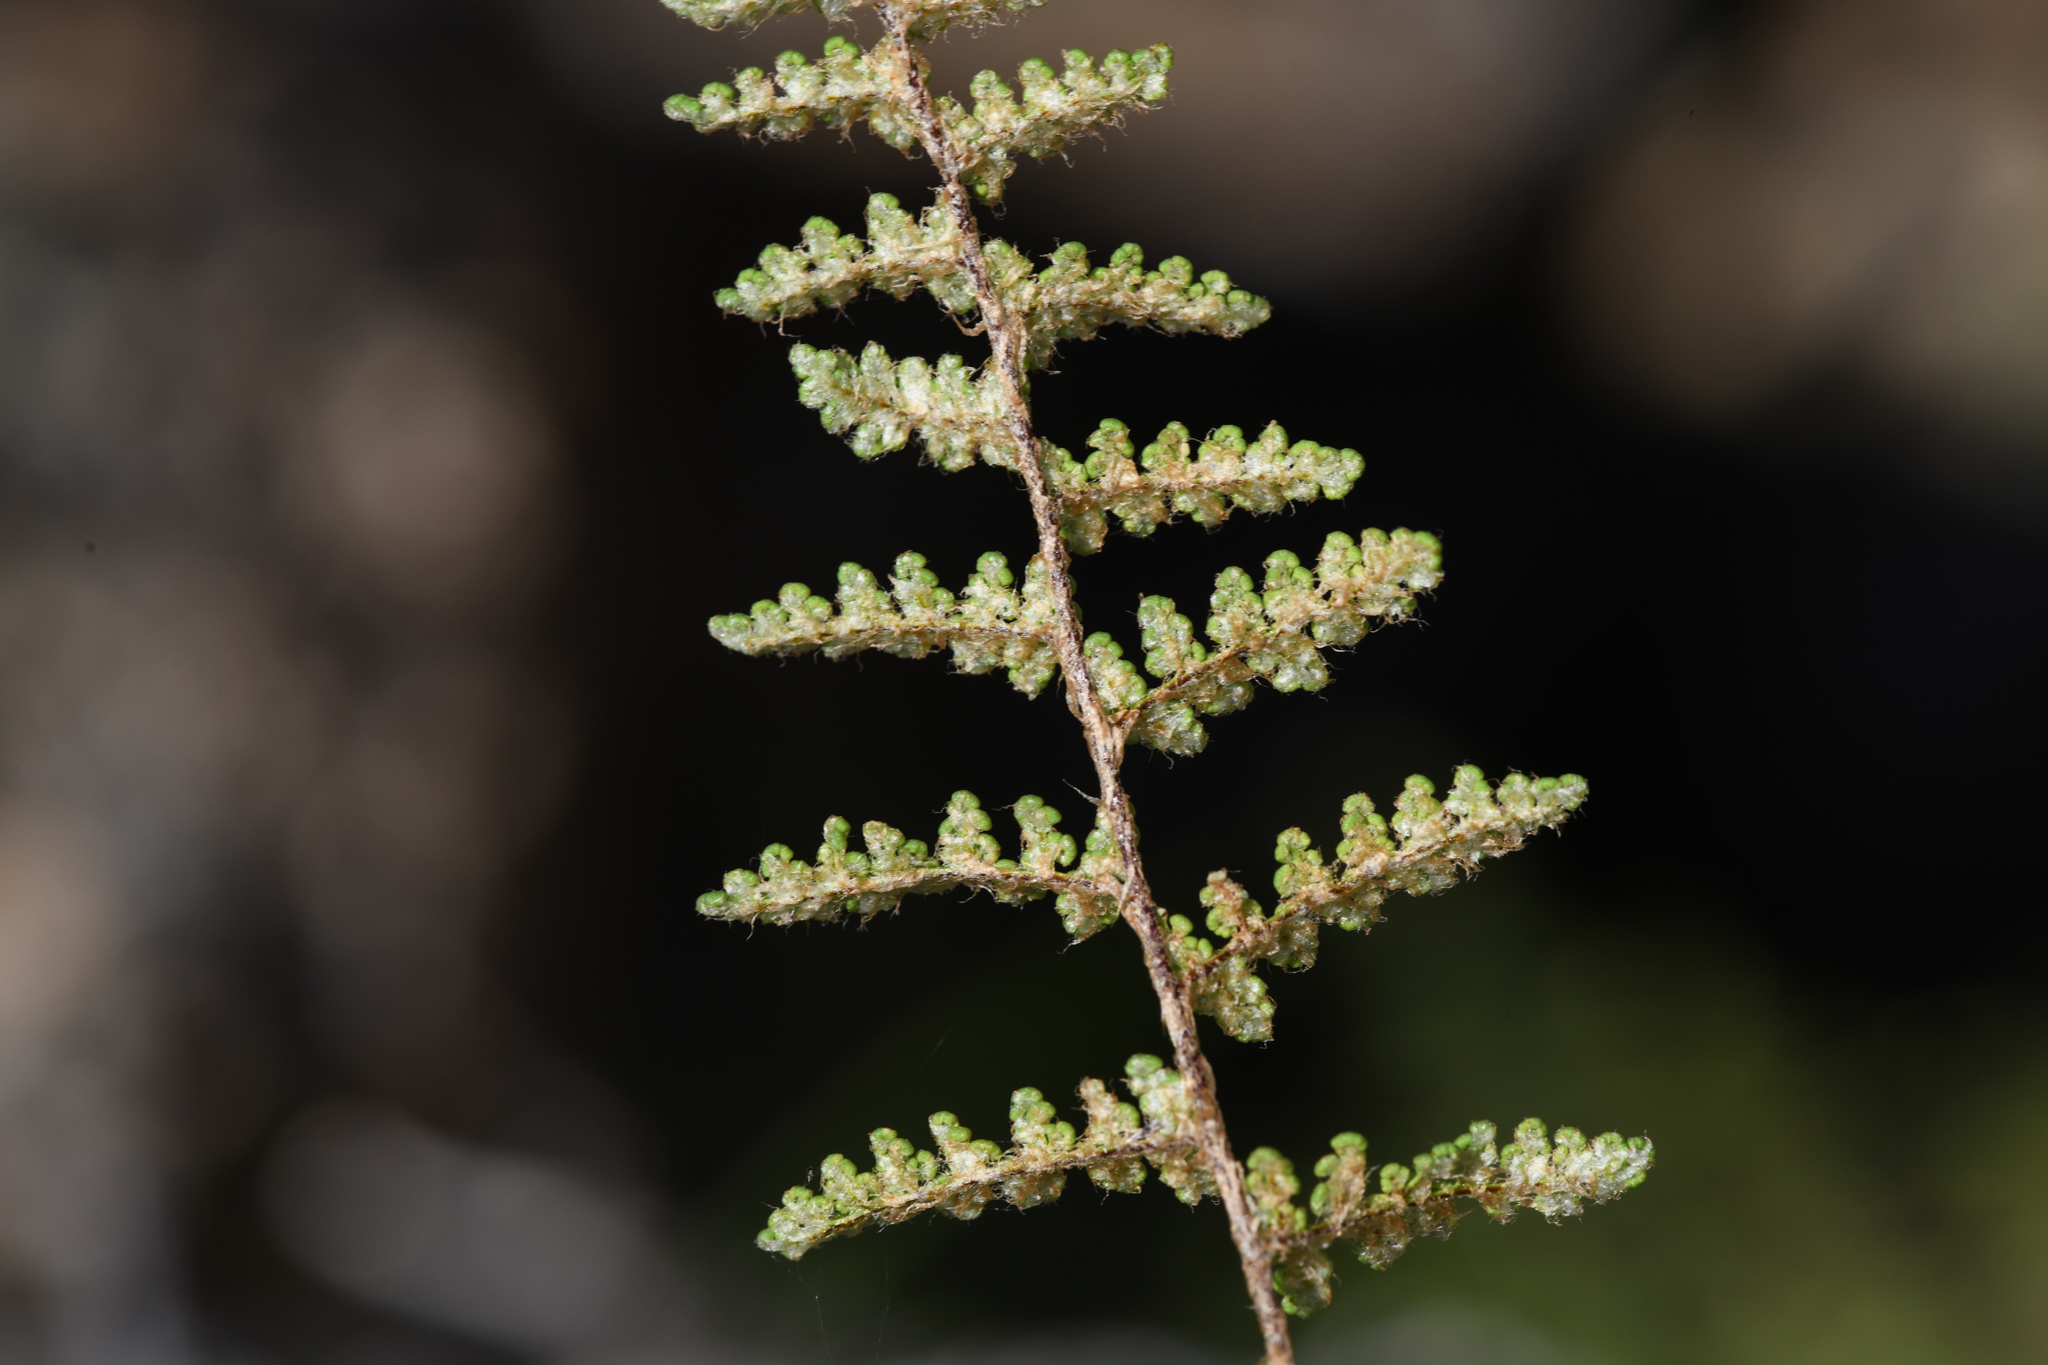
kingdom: Plantae
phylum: Tracheophyta
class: Polypodiopsida
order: Polypodiales
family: Pteridaceae
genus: Myriopteris
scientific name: Myriopteris wootonii
